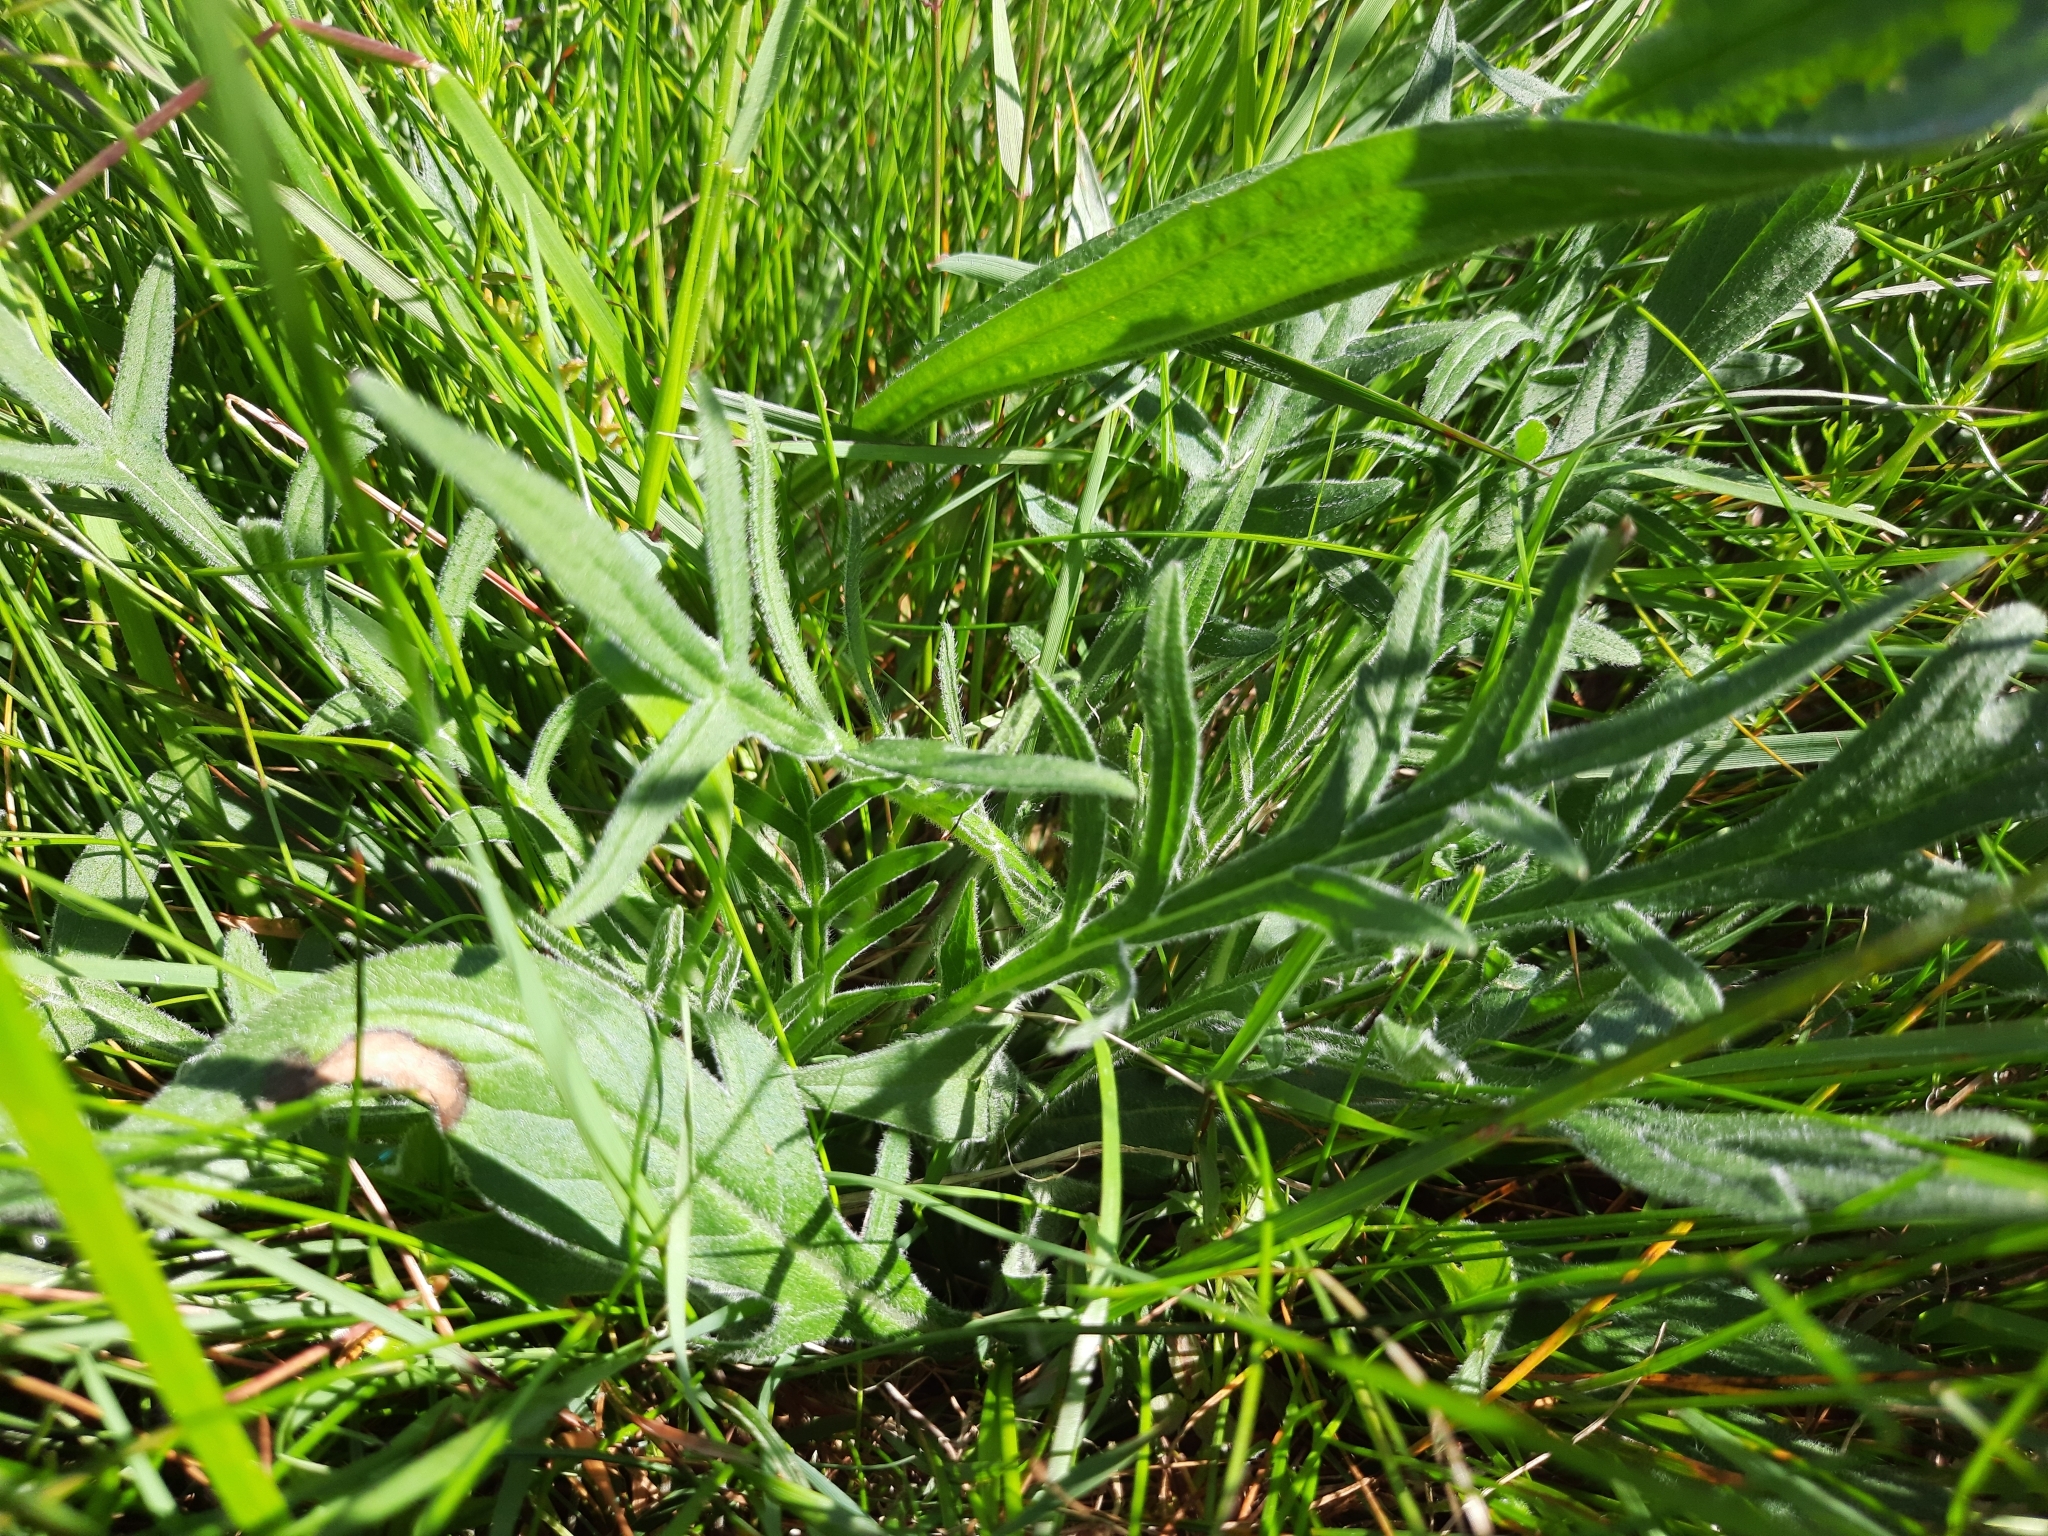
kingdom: Plantae
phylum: Tracheophyta
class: Magnoliopsida
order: Dipsacales
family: Caprifoliaceae
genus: Knautia
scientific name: Knautia arvensis
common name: Field scabiosa
